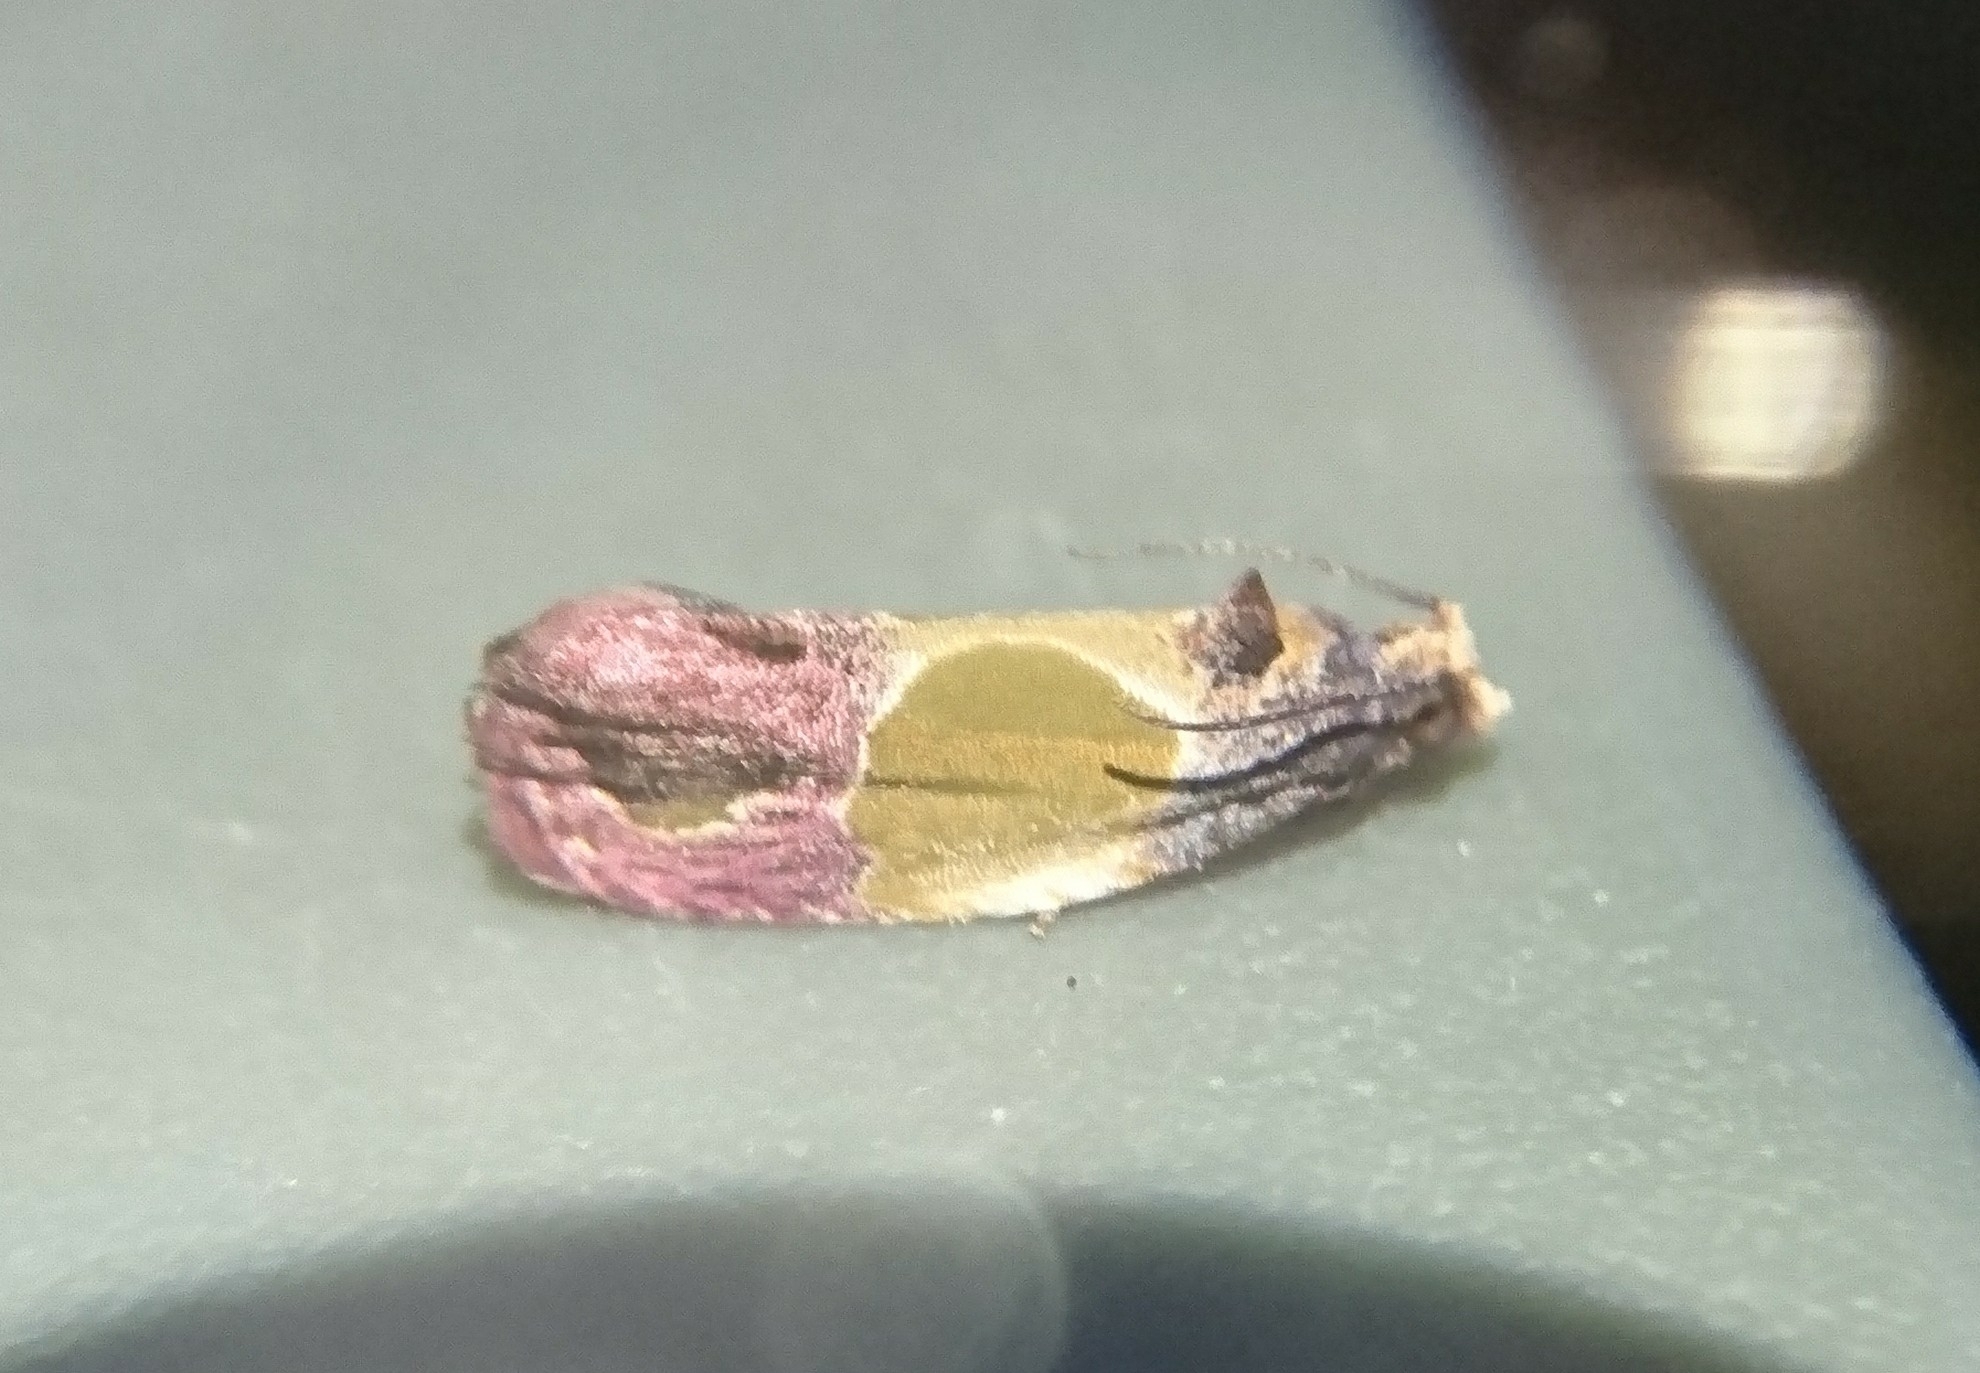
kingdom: Animalia
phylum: Arthropoda
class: Insecta
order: Lepidoptera
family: Tortricidae
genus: Eumarozia
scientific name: Eumarozia malachitana
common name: Sculptured moth
